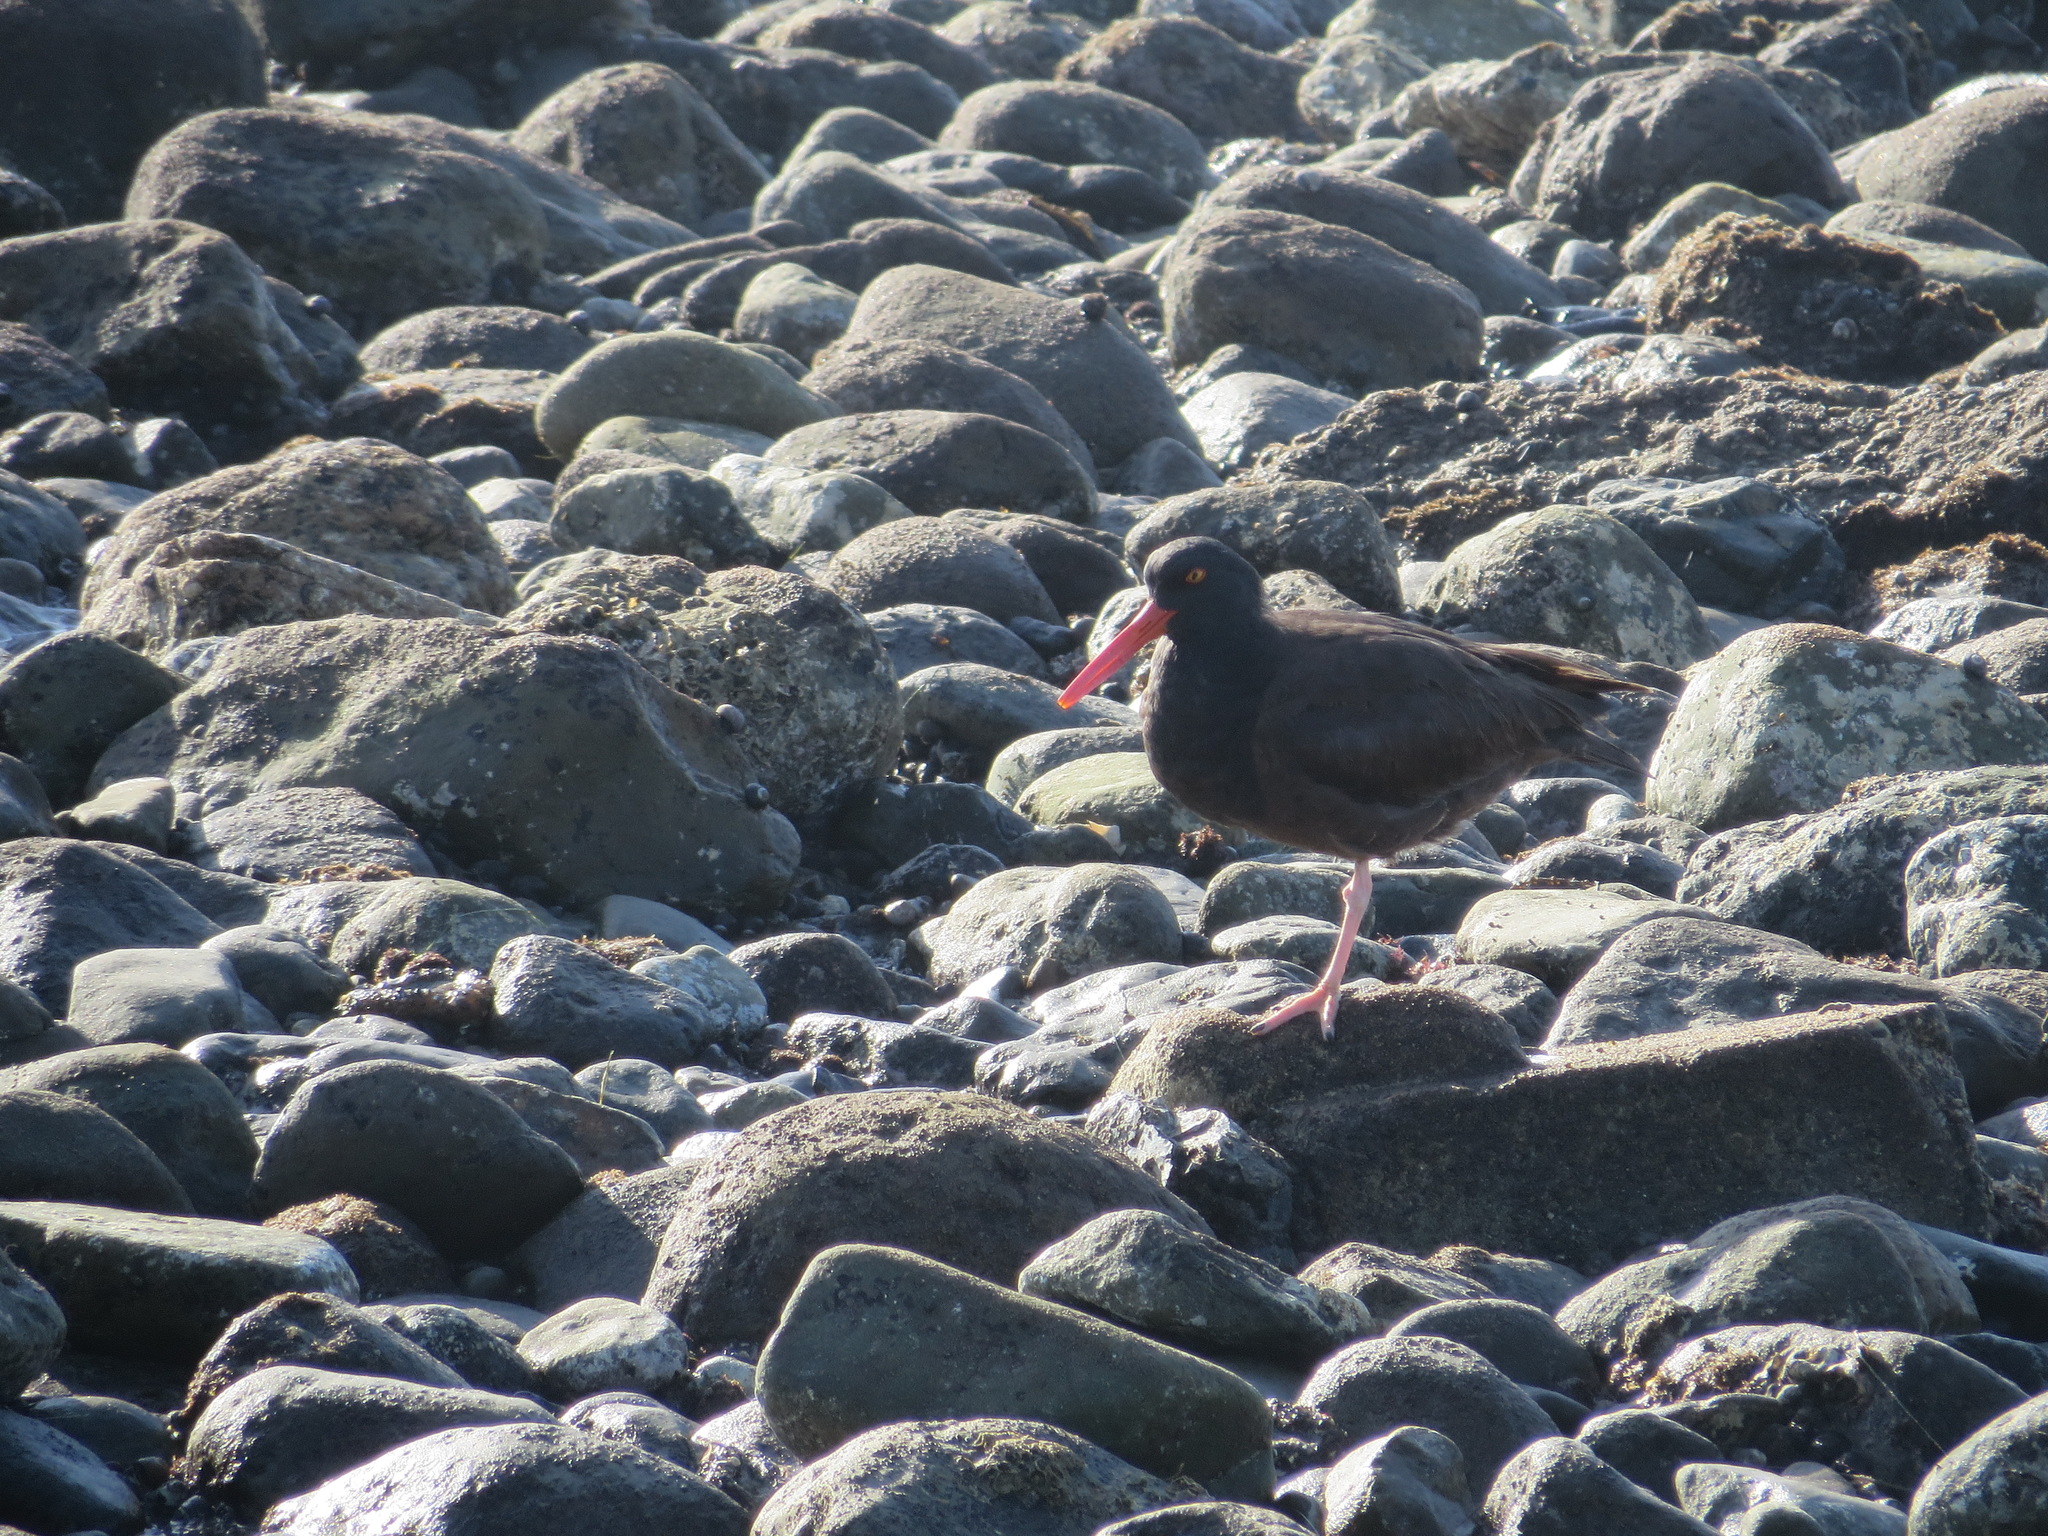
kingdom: Animalia
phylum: Chordata
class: Aves
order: Charadriiformes
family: Haematopodidae
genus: Haematopus
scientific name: Haematopus bachmani
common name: Black oystercatcher
